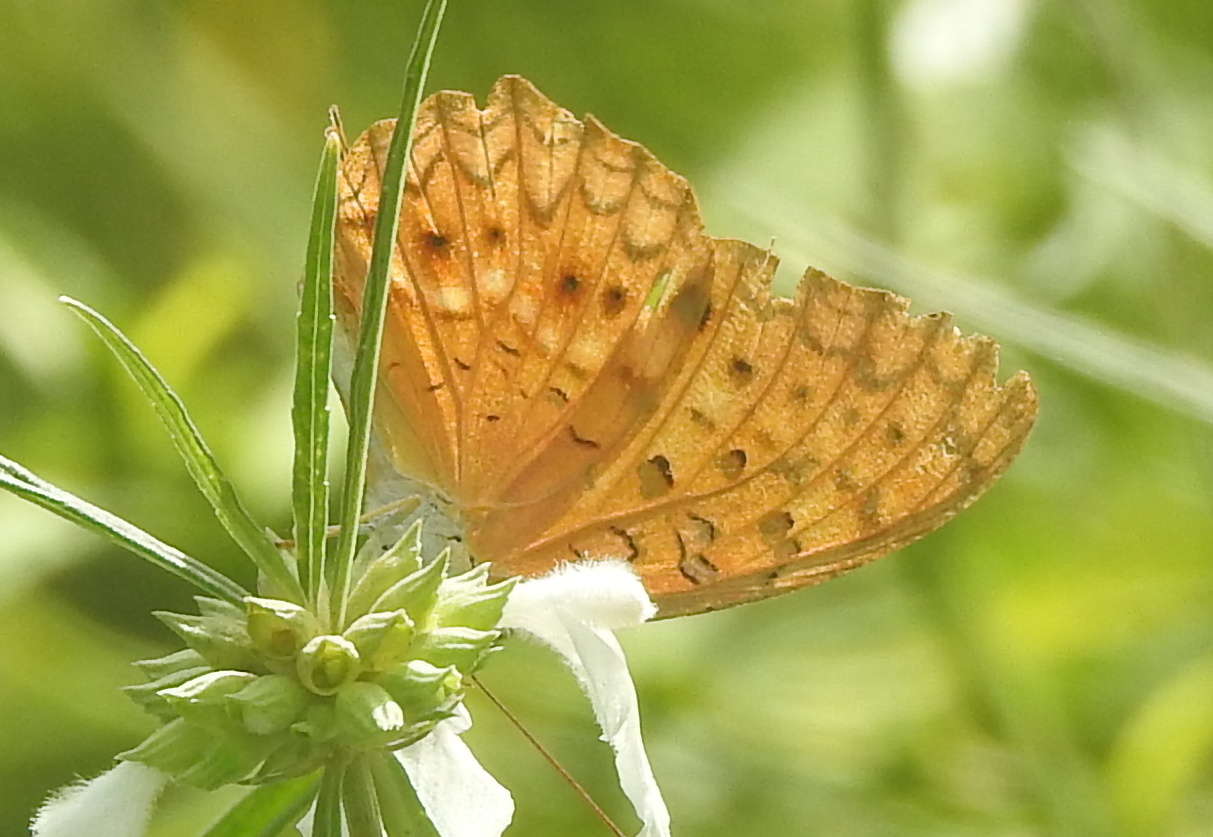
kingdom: Animalia
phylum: Arthropoda
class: Insecta
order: Lepidoptera
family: Nymphalidae
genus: Phalanta
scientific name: Phalanta phalantha
